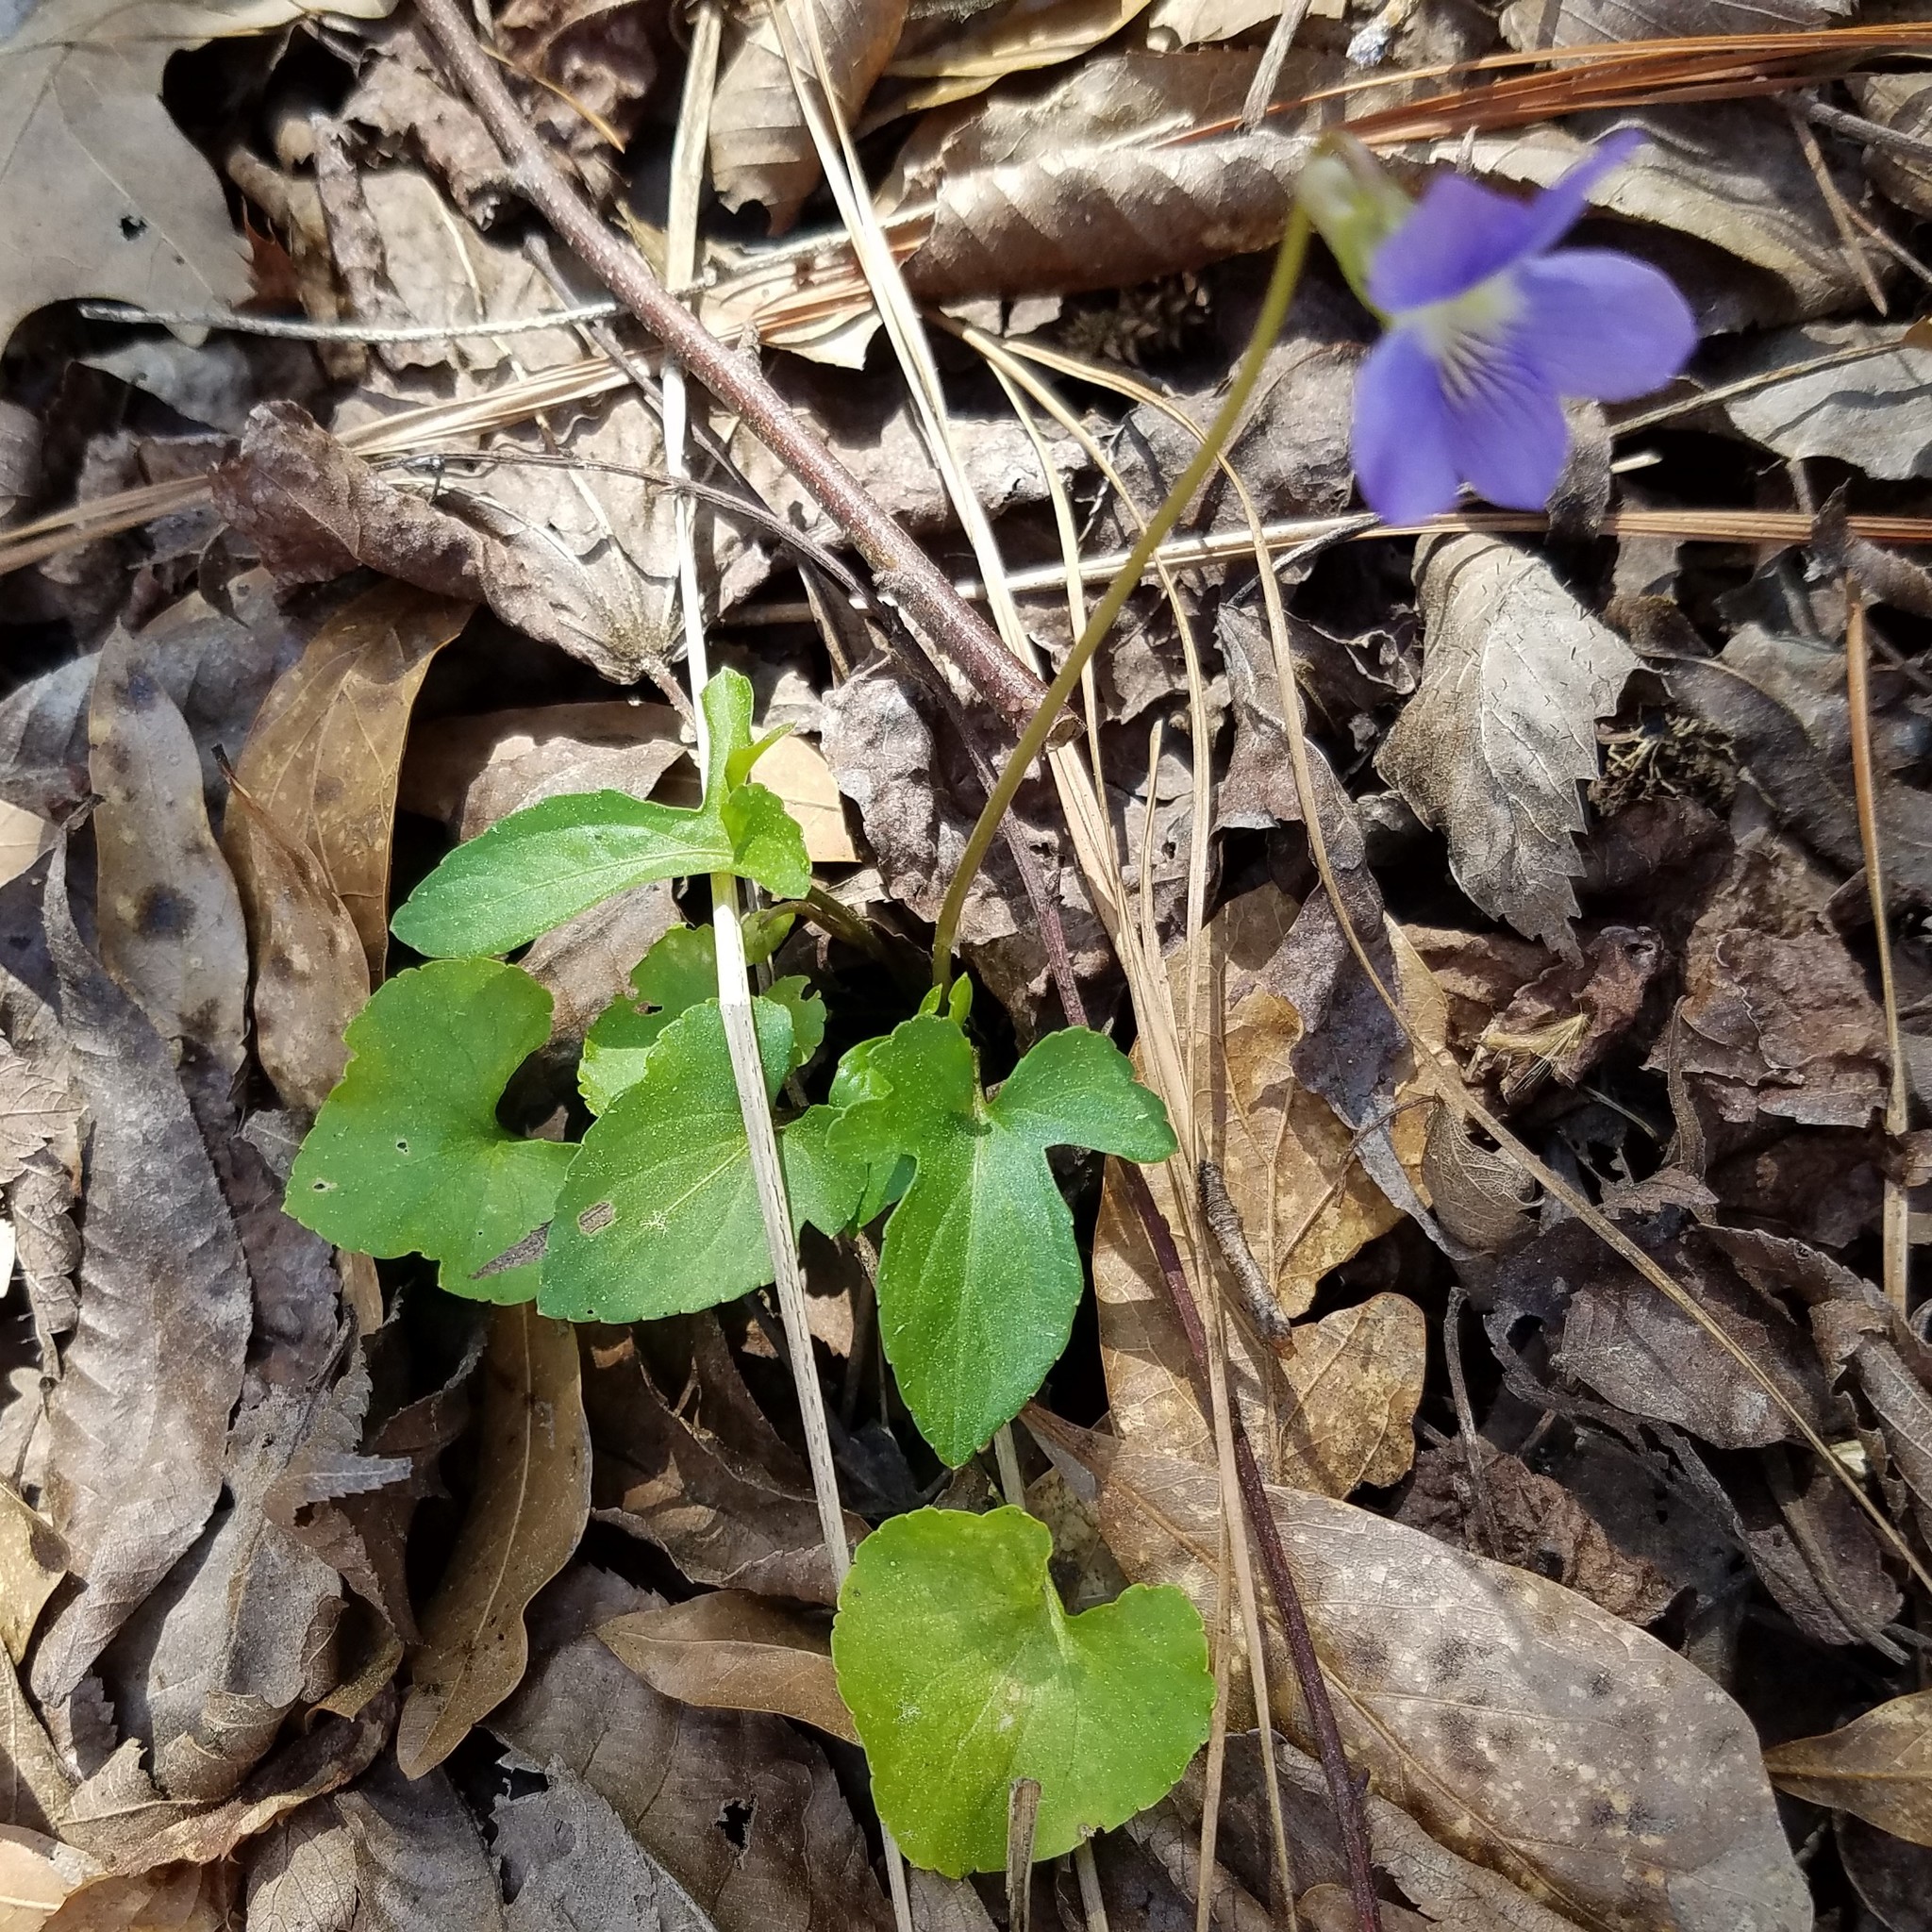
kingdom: Plantae
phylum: Tracheophyta
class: Magnoliopsida
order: Malpighiales
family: Violaceae
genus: Viola
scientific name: Viola palmata
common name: Early blue violet
